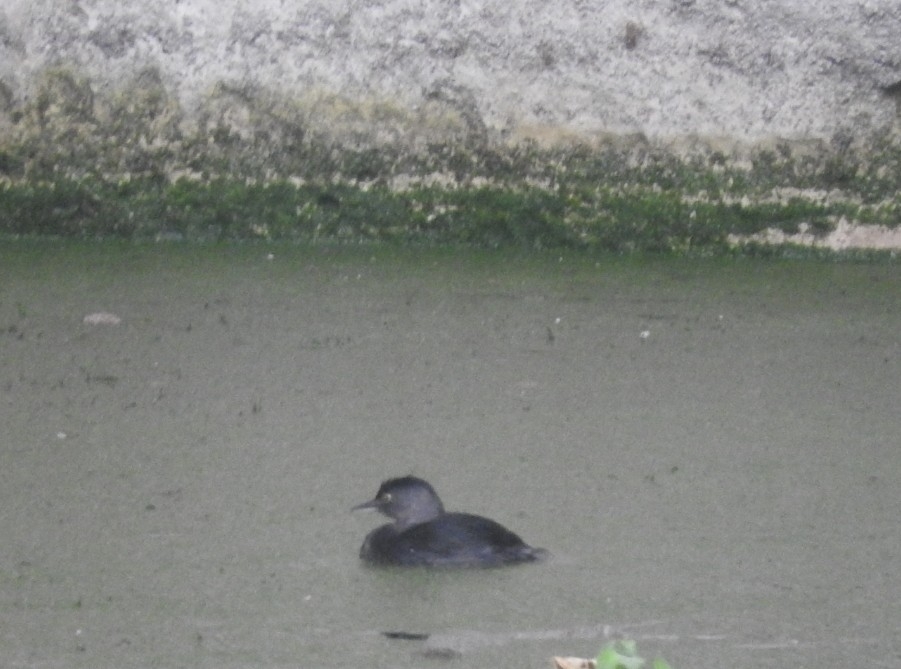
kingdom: Animalia
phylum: Chordata
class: Aves
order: Podicipediformes
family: Podicipedidae
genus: Tachybaptus
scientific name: Tachybaptus dominicus
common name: Least grebe
